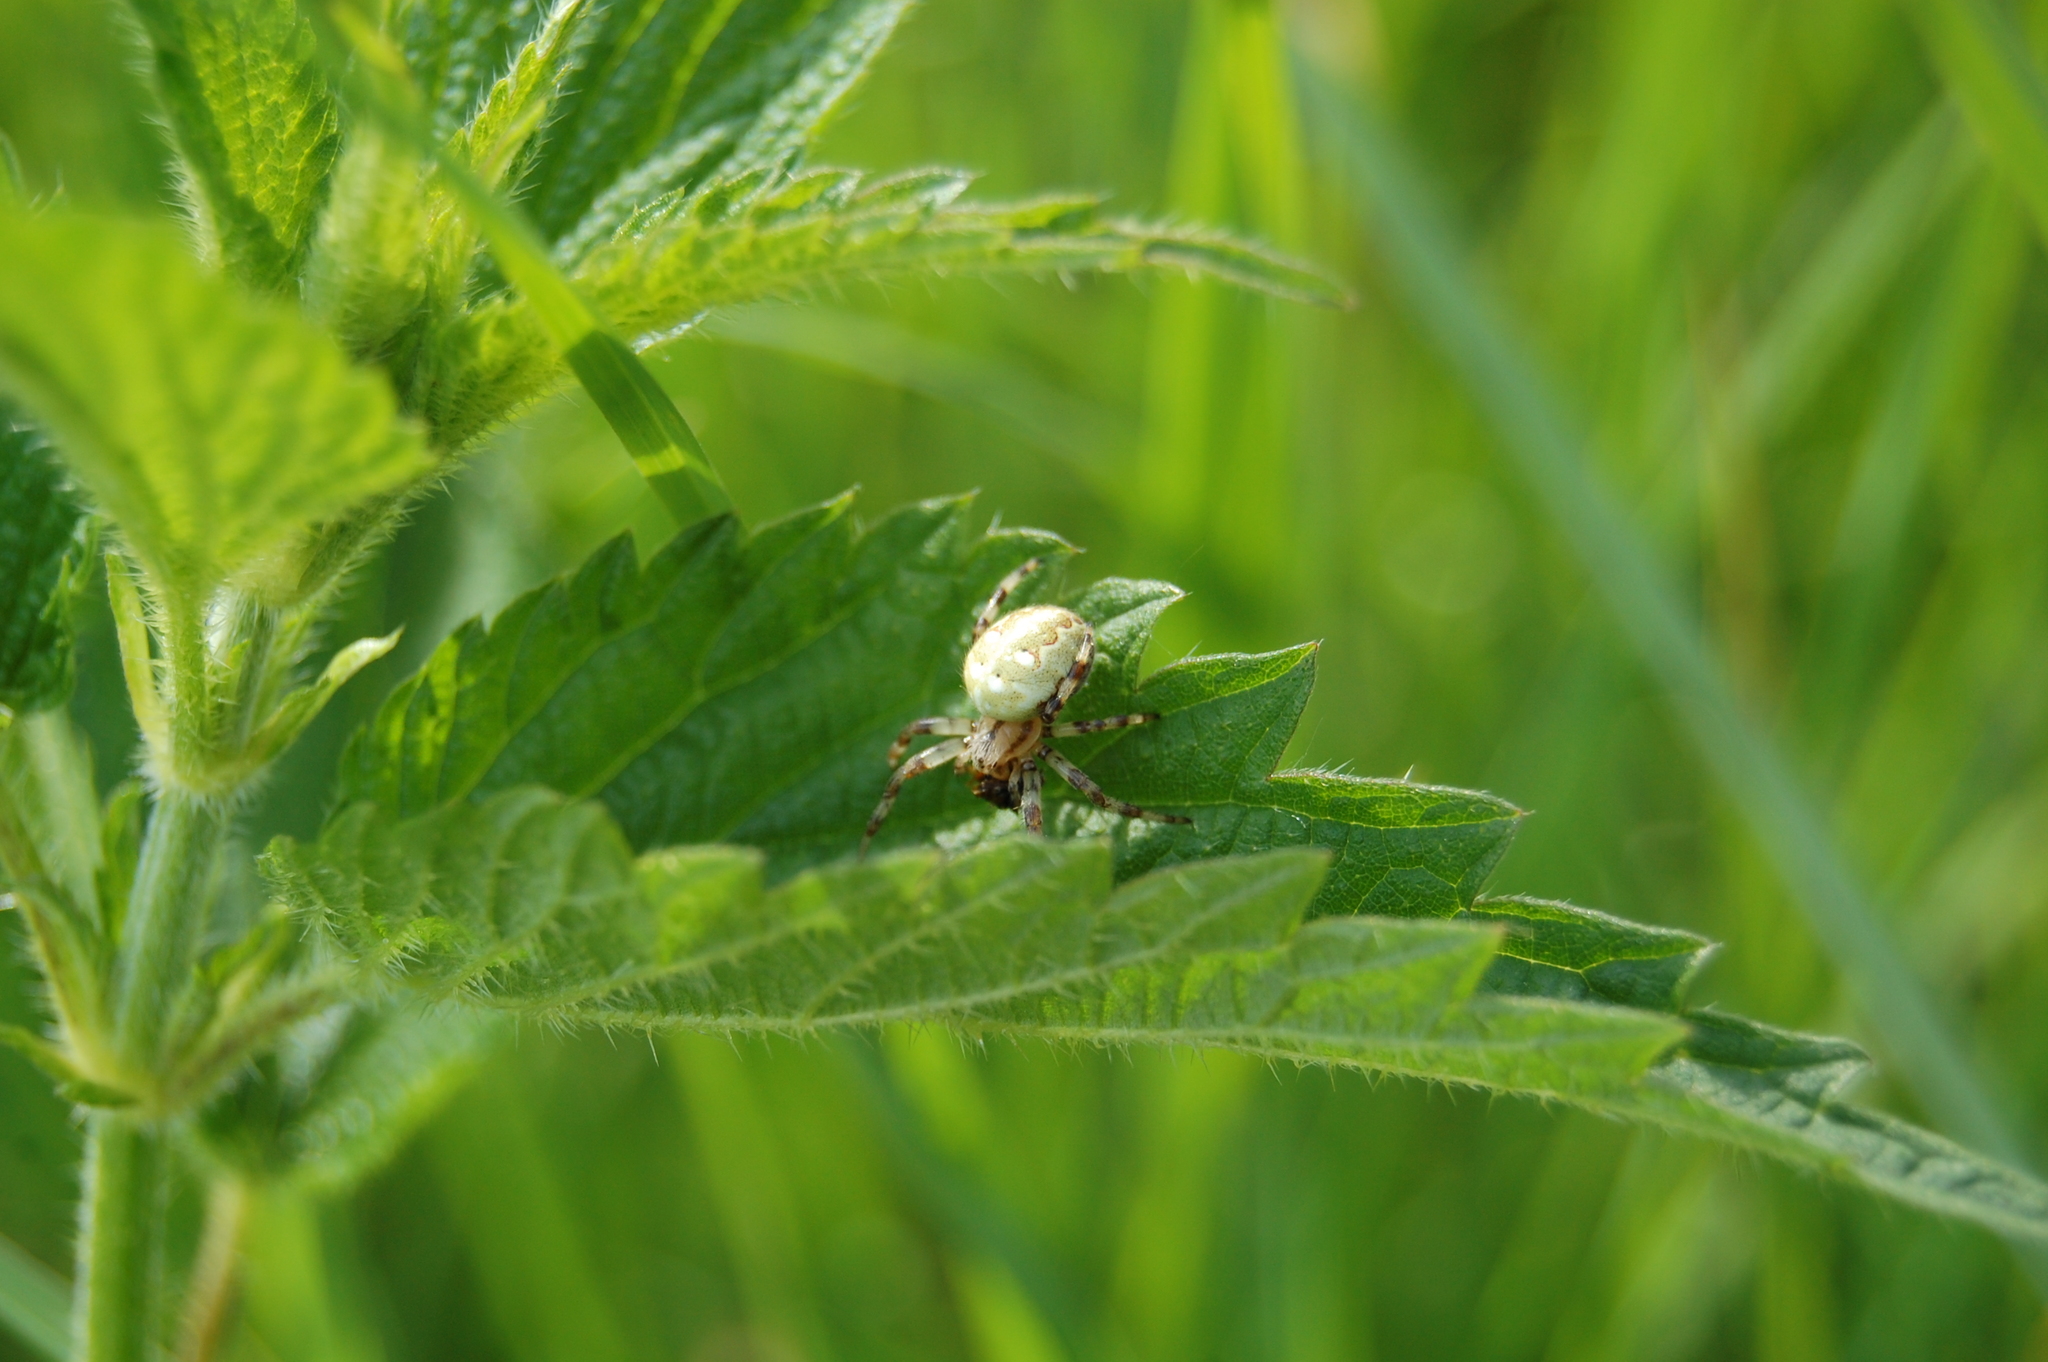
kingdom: Animalia
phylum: Arthropoda
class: Arachnida
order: Araneae
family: Araneidae
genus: Araneus
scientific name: Araneus quadratus
